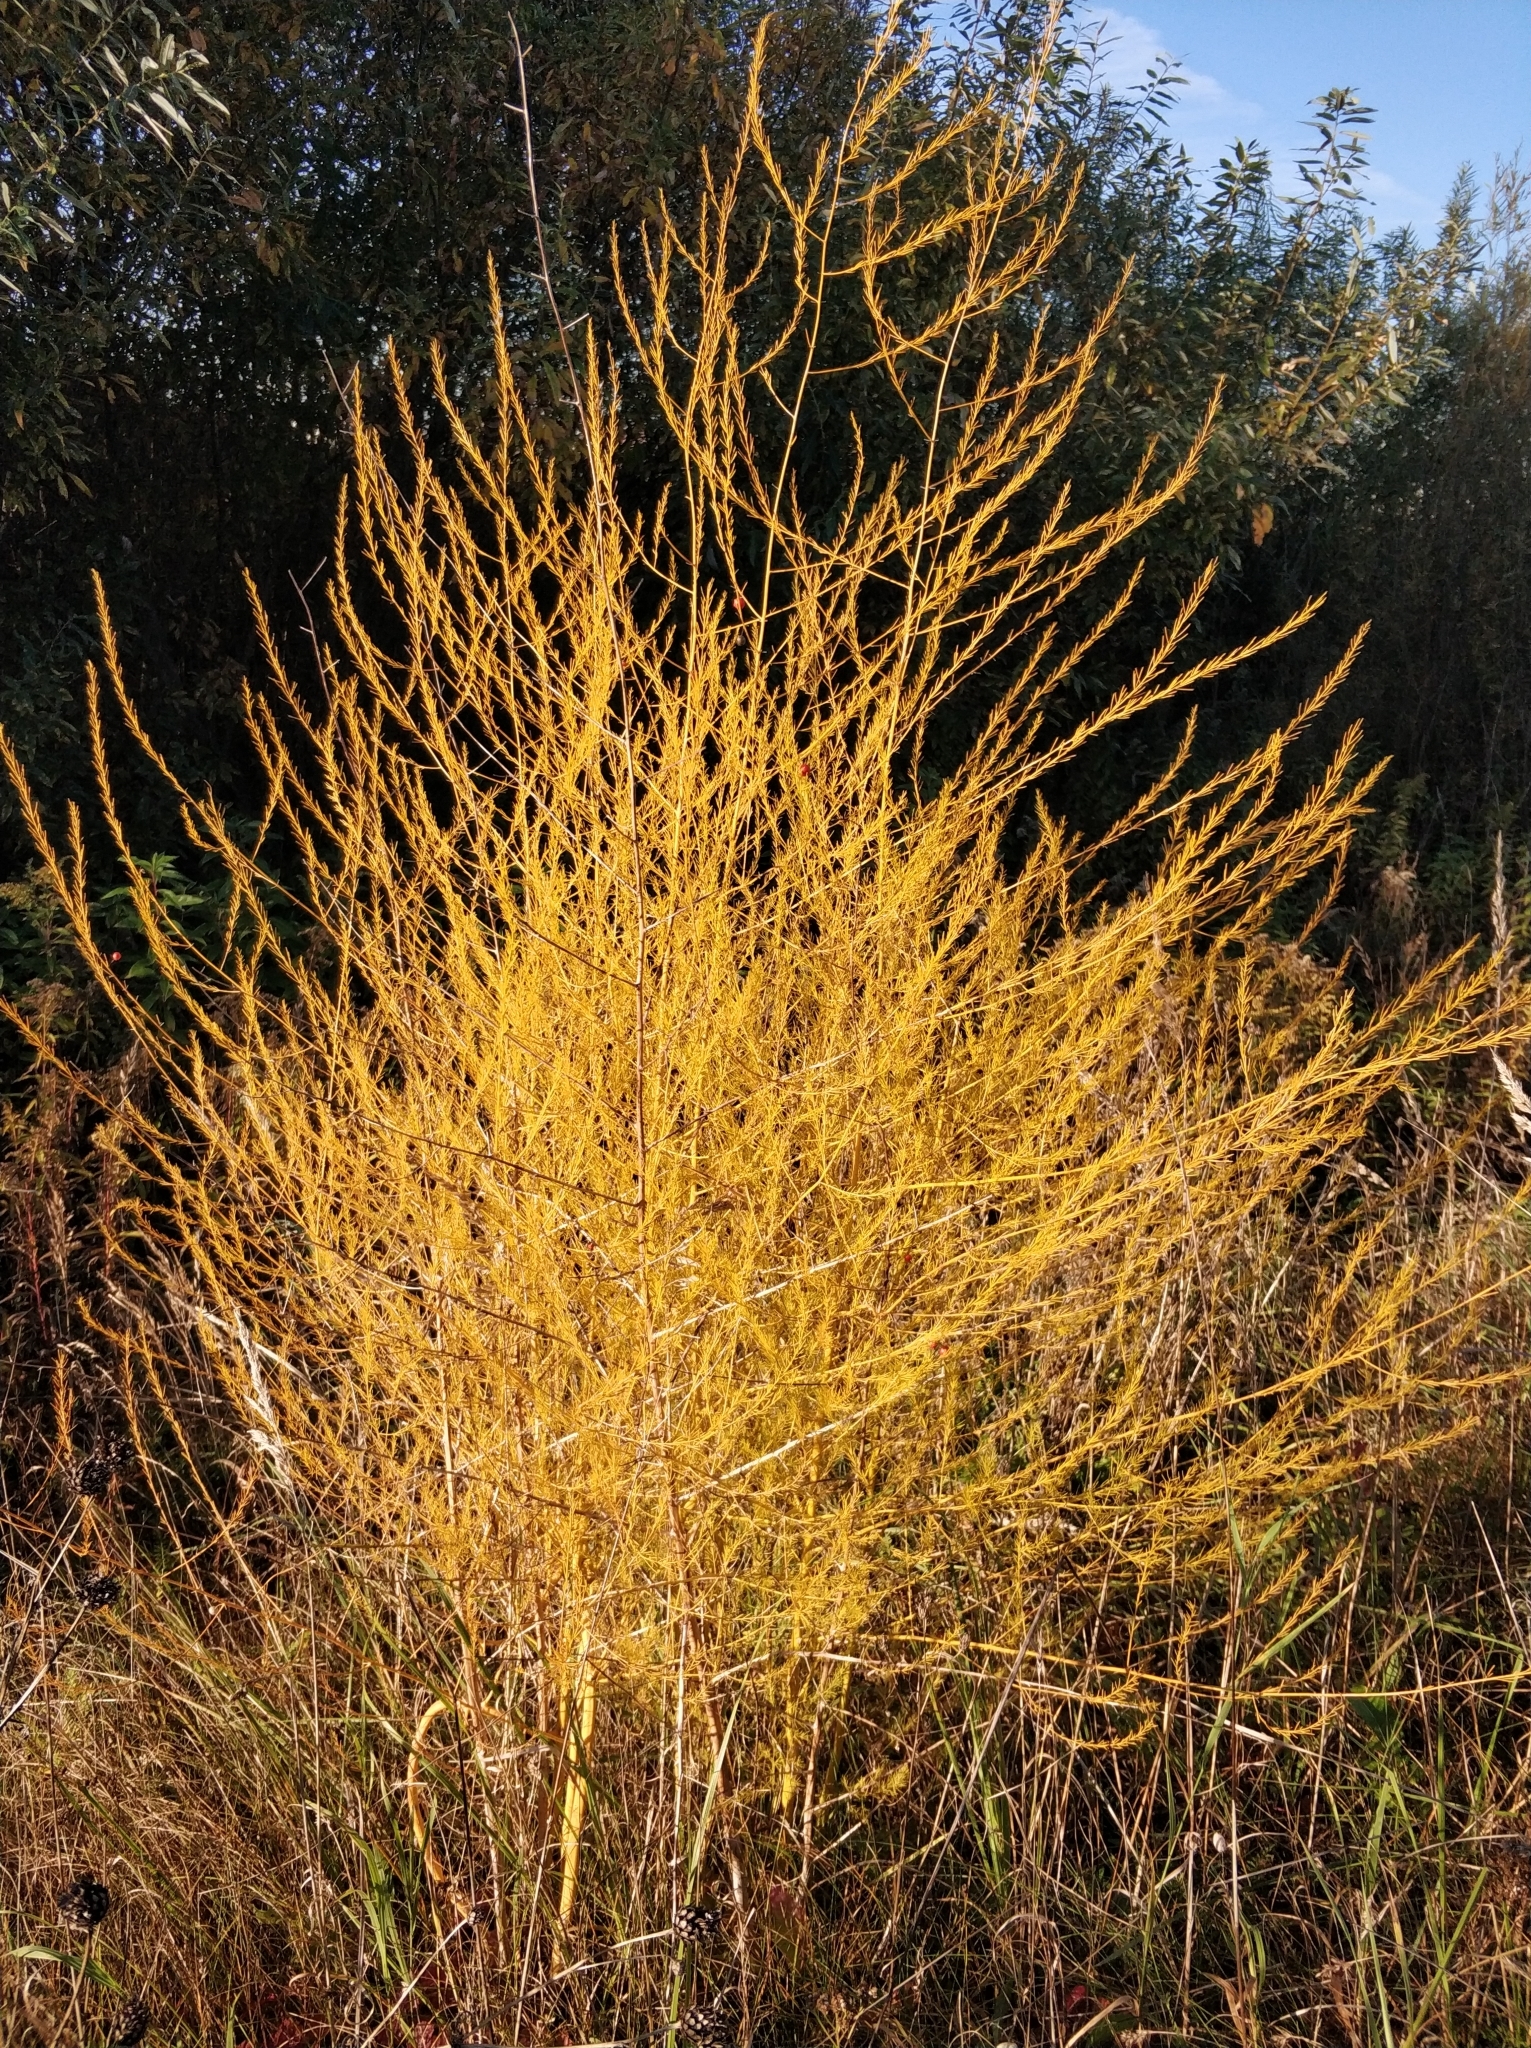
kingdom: Plantae
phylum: Tracheophyta
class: Liliopsida
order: Asparagales
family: Asparagaceae
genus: Asparagus
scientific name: Asparagus officinalis
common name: Garden asparagus
